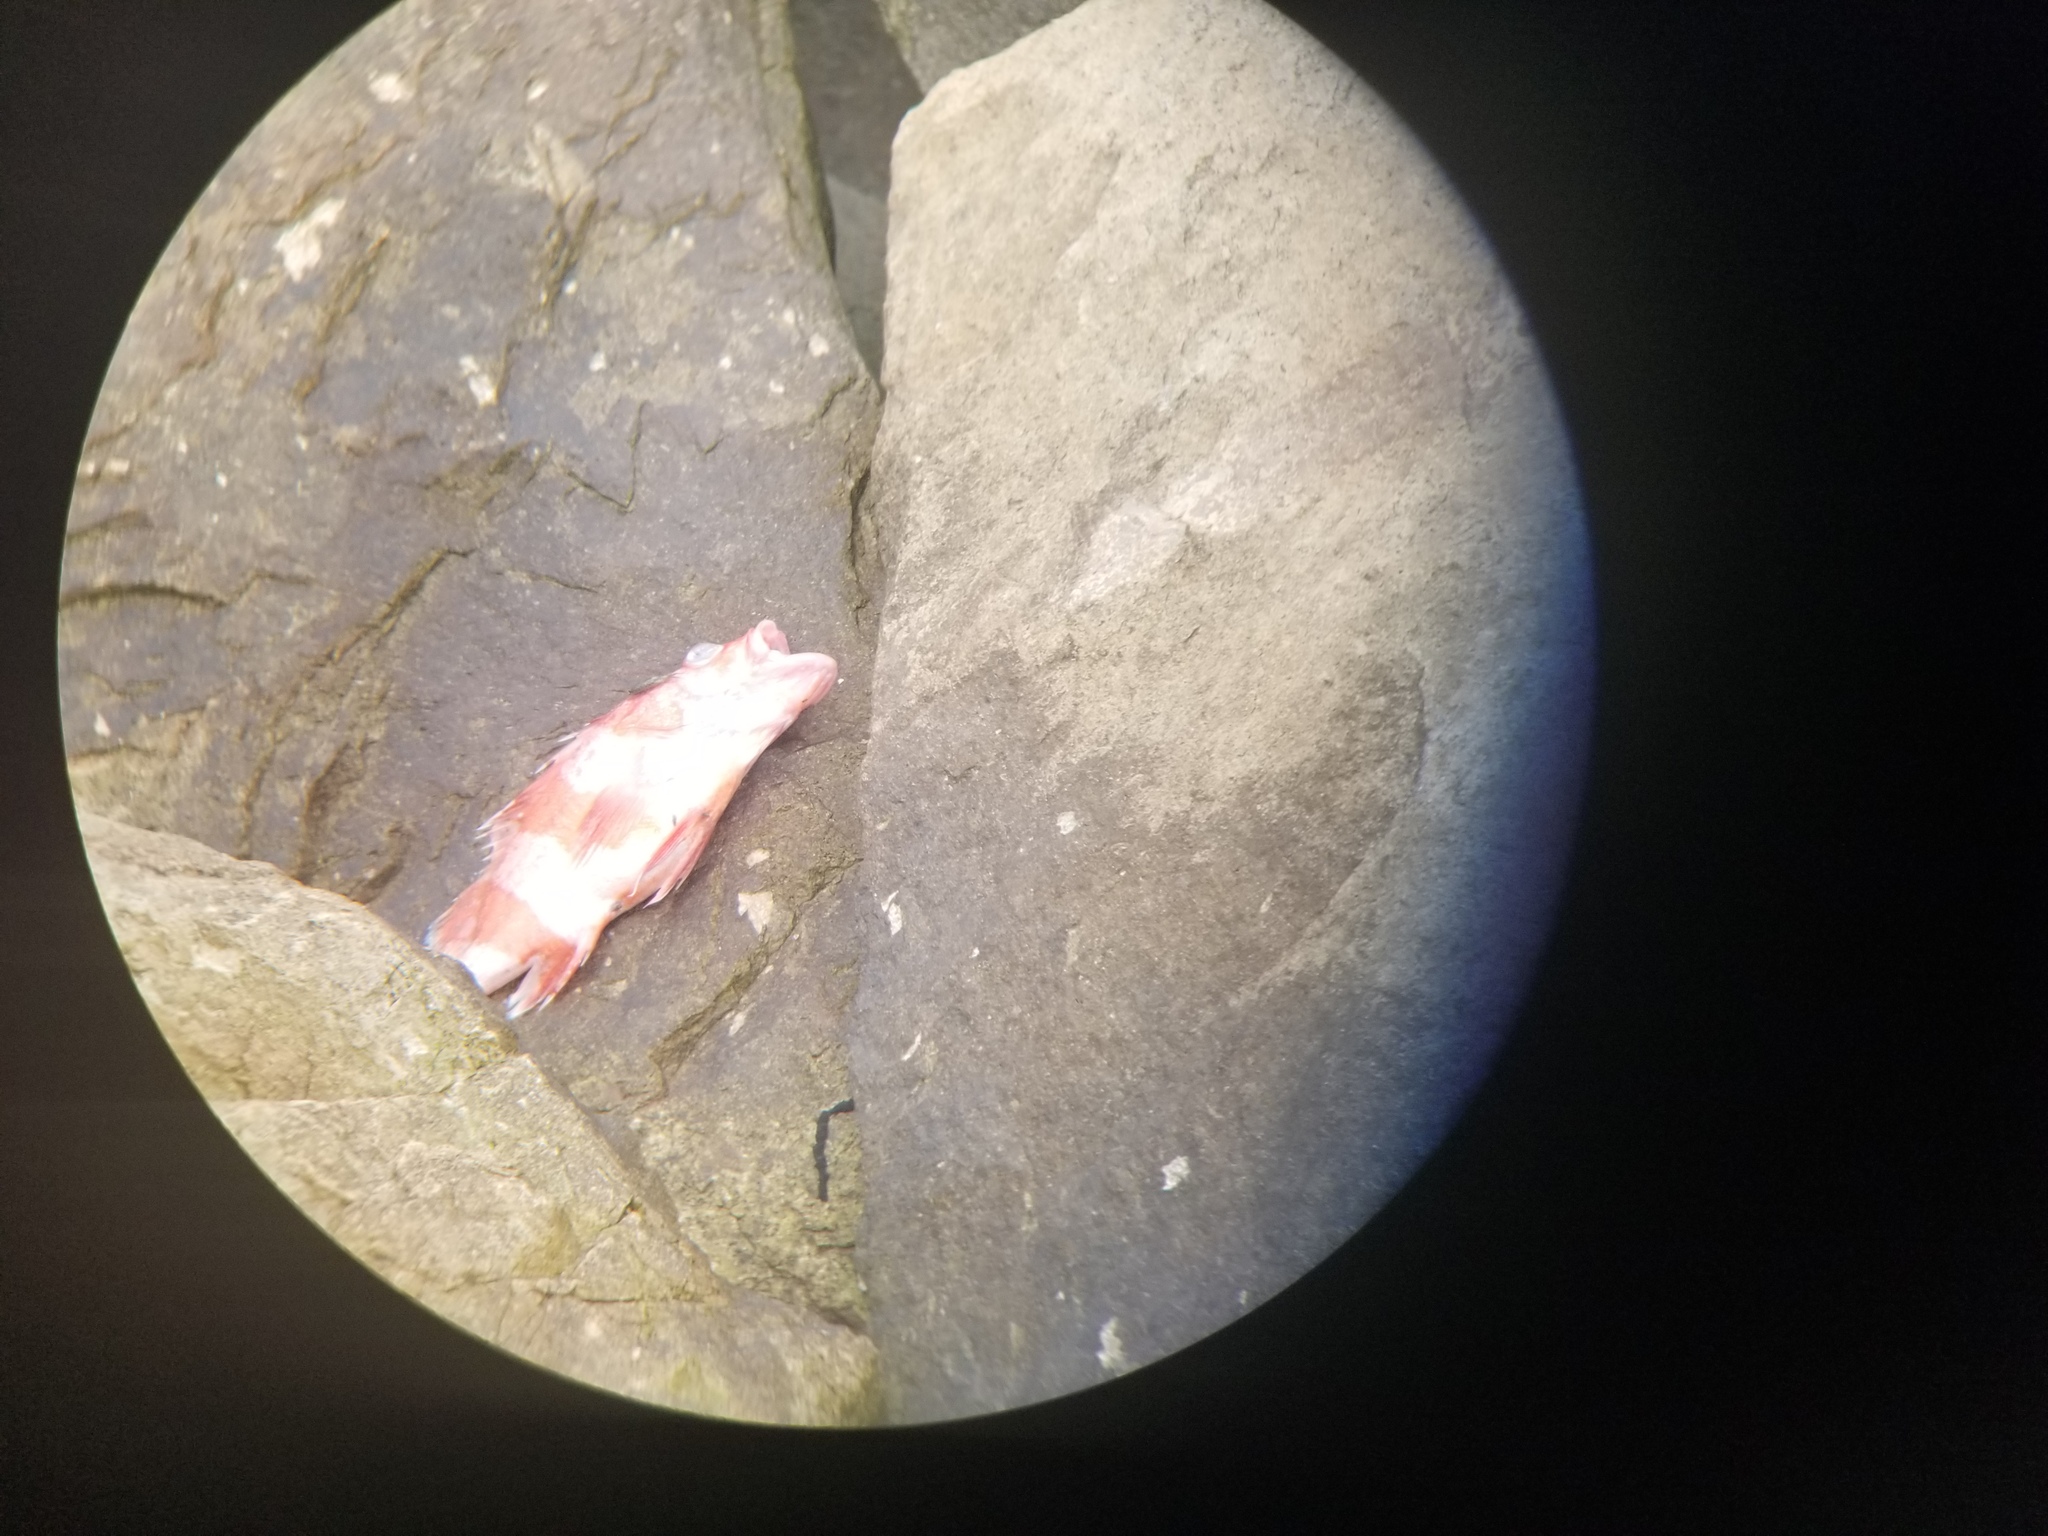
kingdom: Animalia
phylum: Chordata
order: Scorpaeniformes
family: Sebastidae
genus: Sebastes
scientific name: Sebastes rubrivinctus
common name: Flag rockfish
